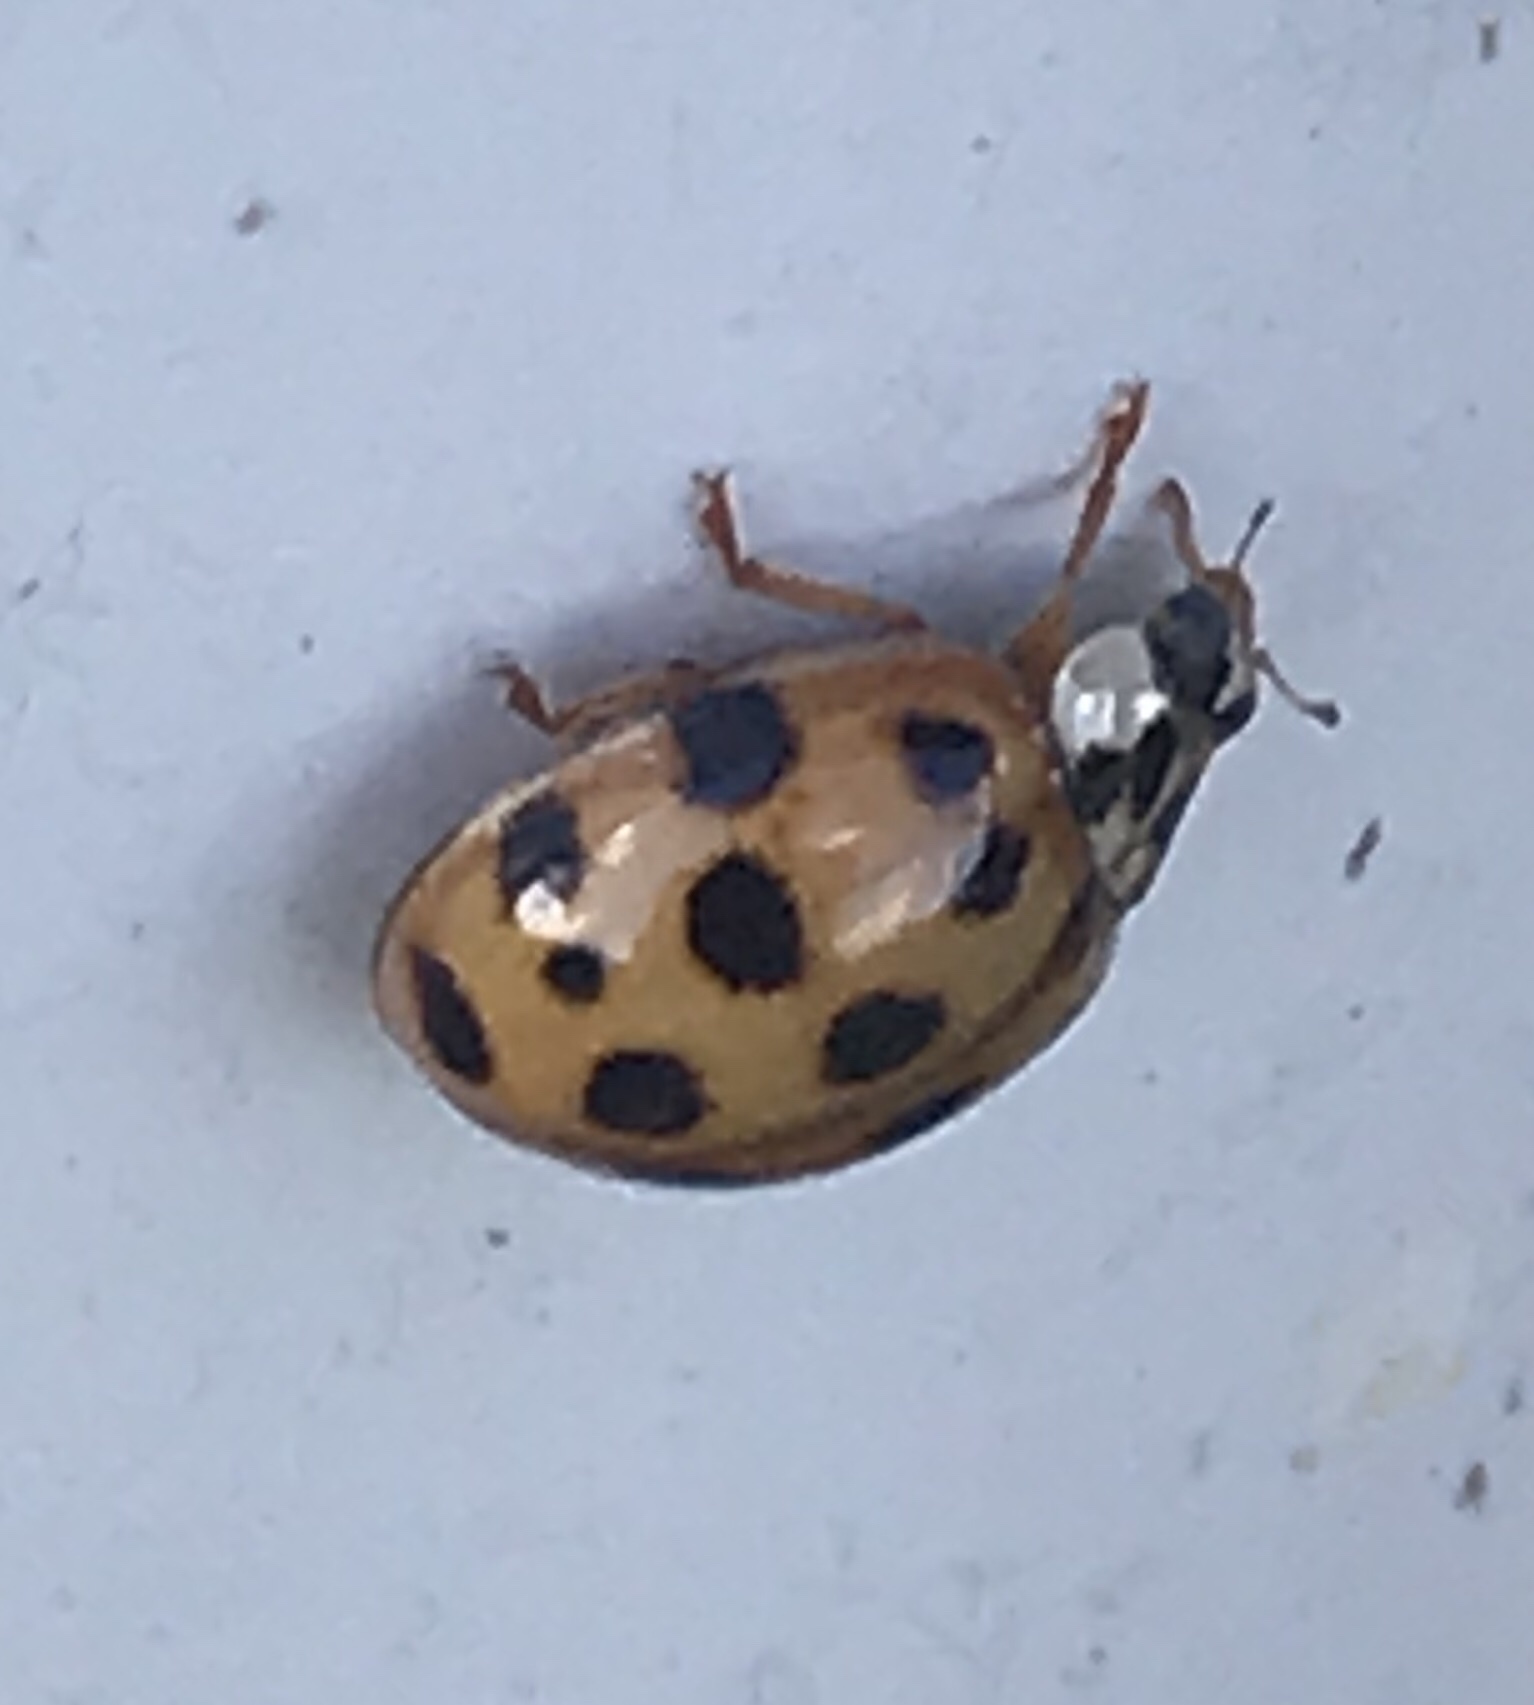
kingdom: Animalia
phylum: Arthropoda
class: Insecta
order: Coleoptera
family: Coccinellidae
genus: Harmonia
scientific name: Harmonia axyridis
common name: Harlequin ladybird
